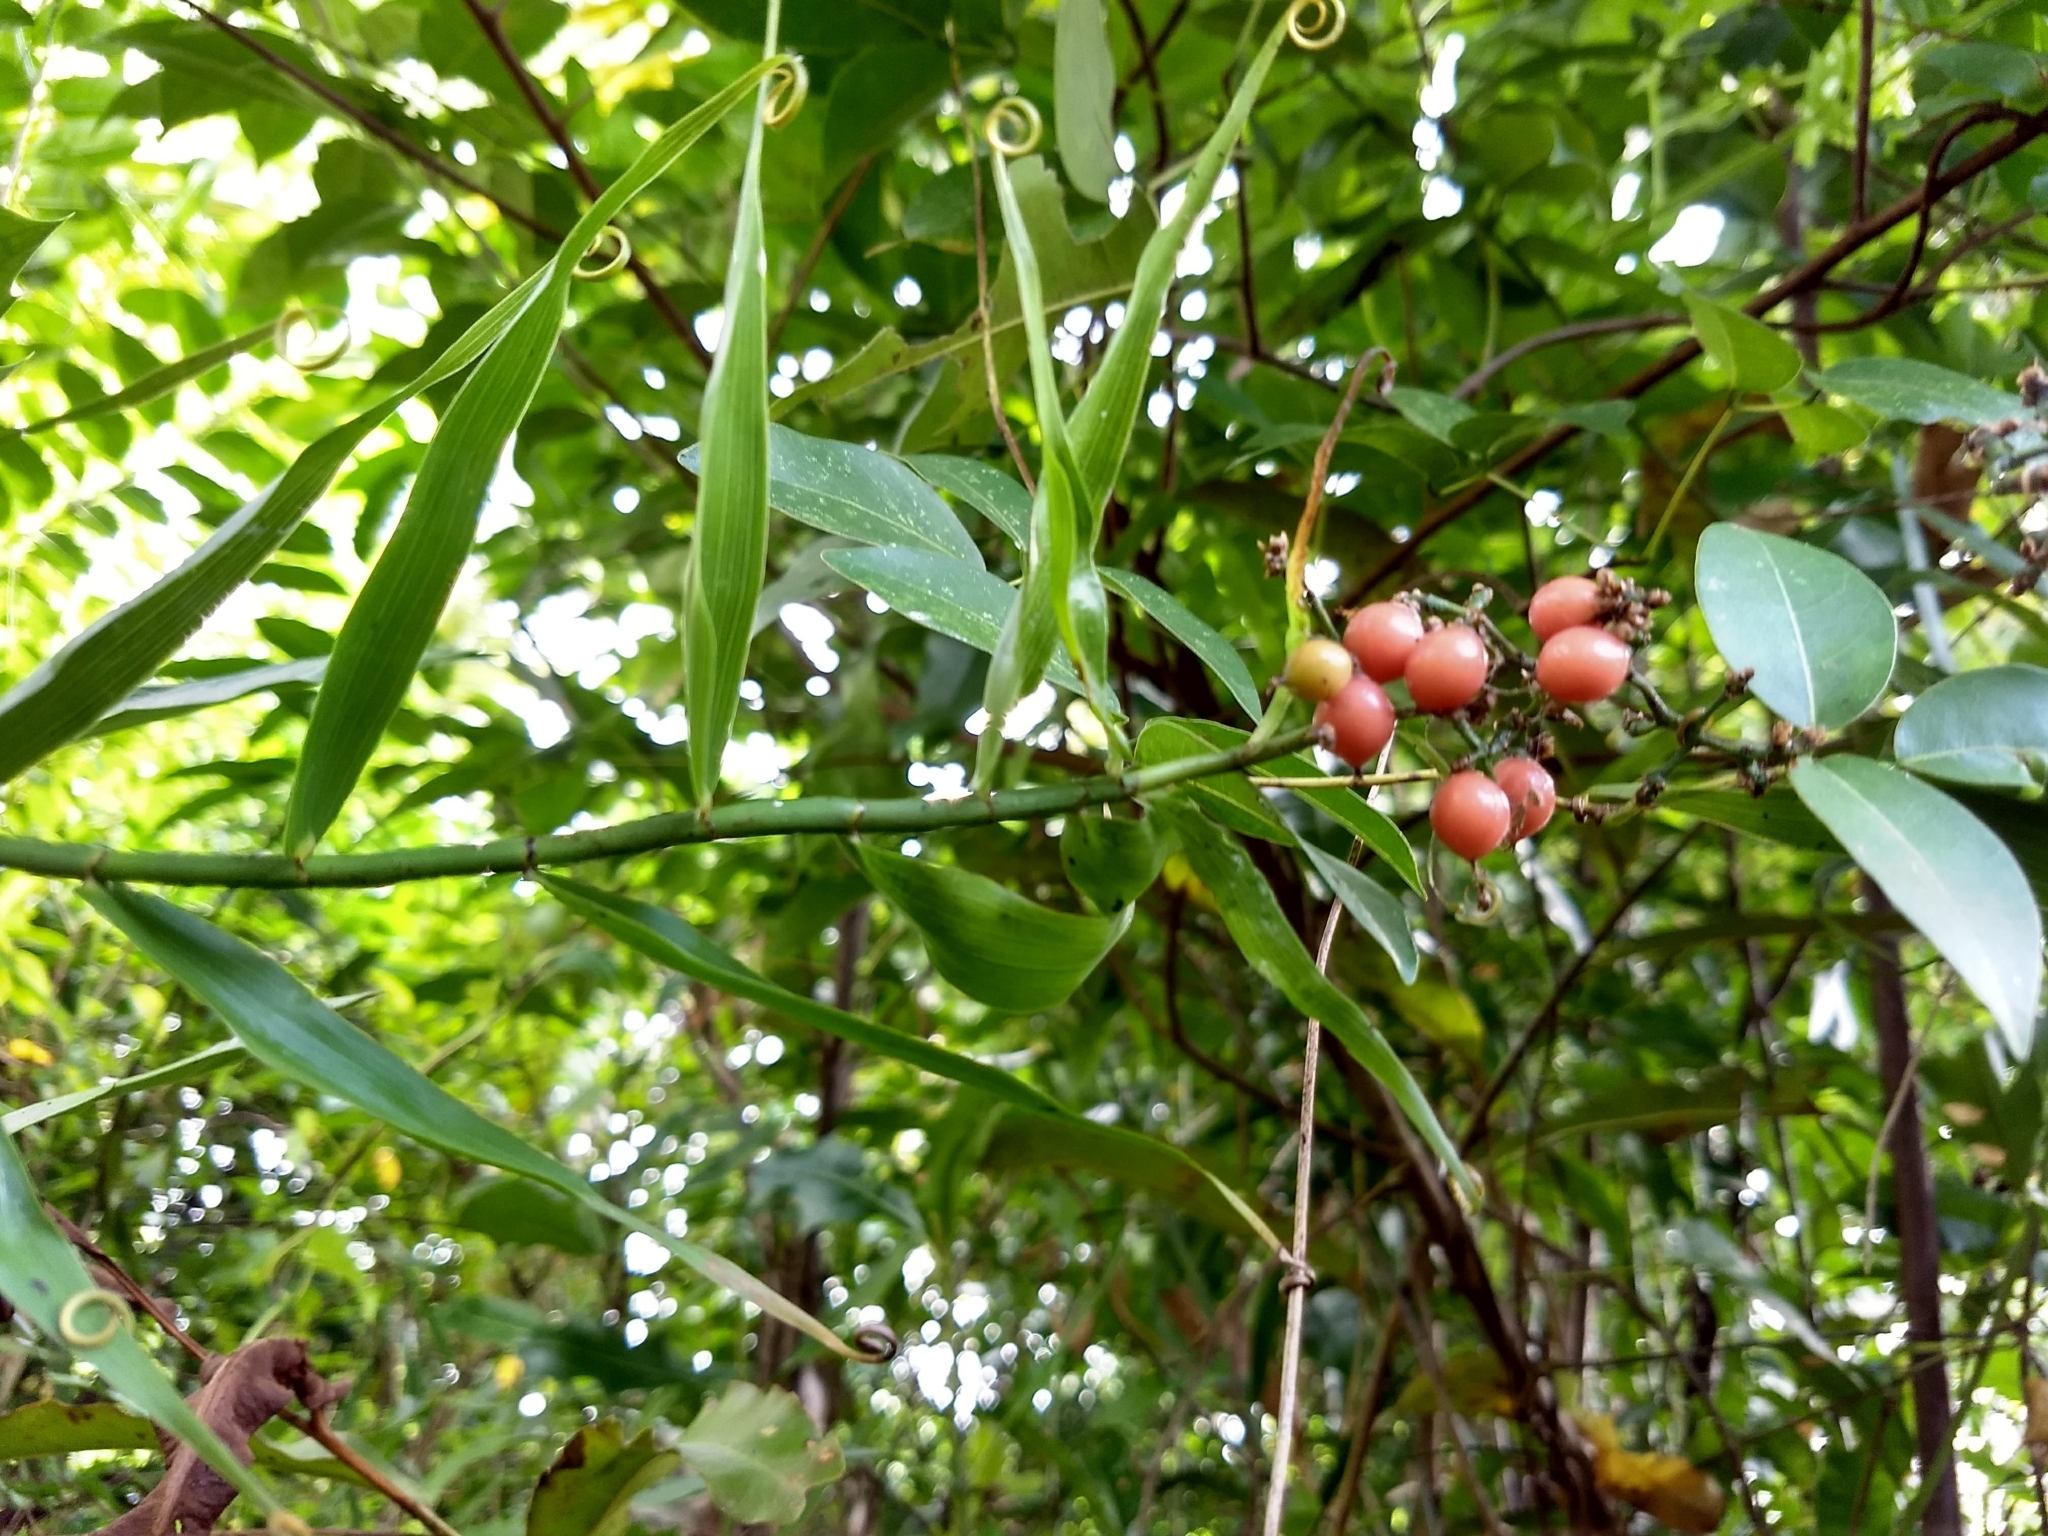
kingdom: Plantae
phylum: Tracheophyta
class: Liliopsida
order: Poales
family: Flagellariaceae
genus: Flagellaria
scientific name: Flagellaria indica
